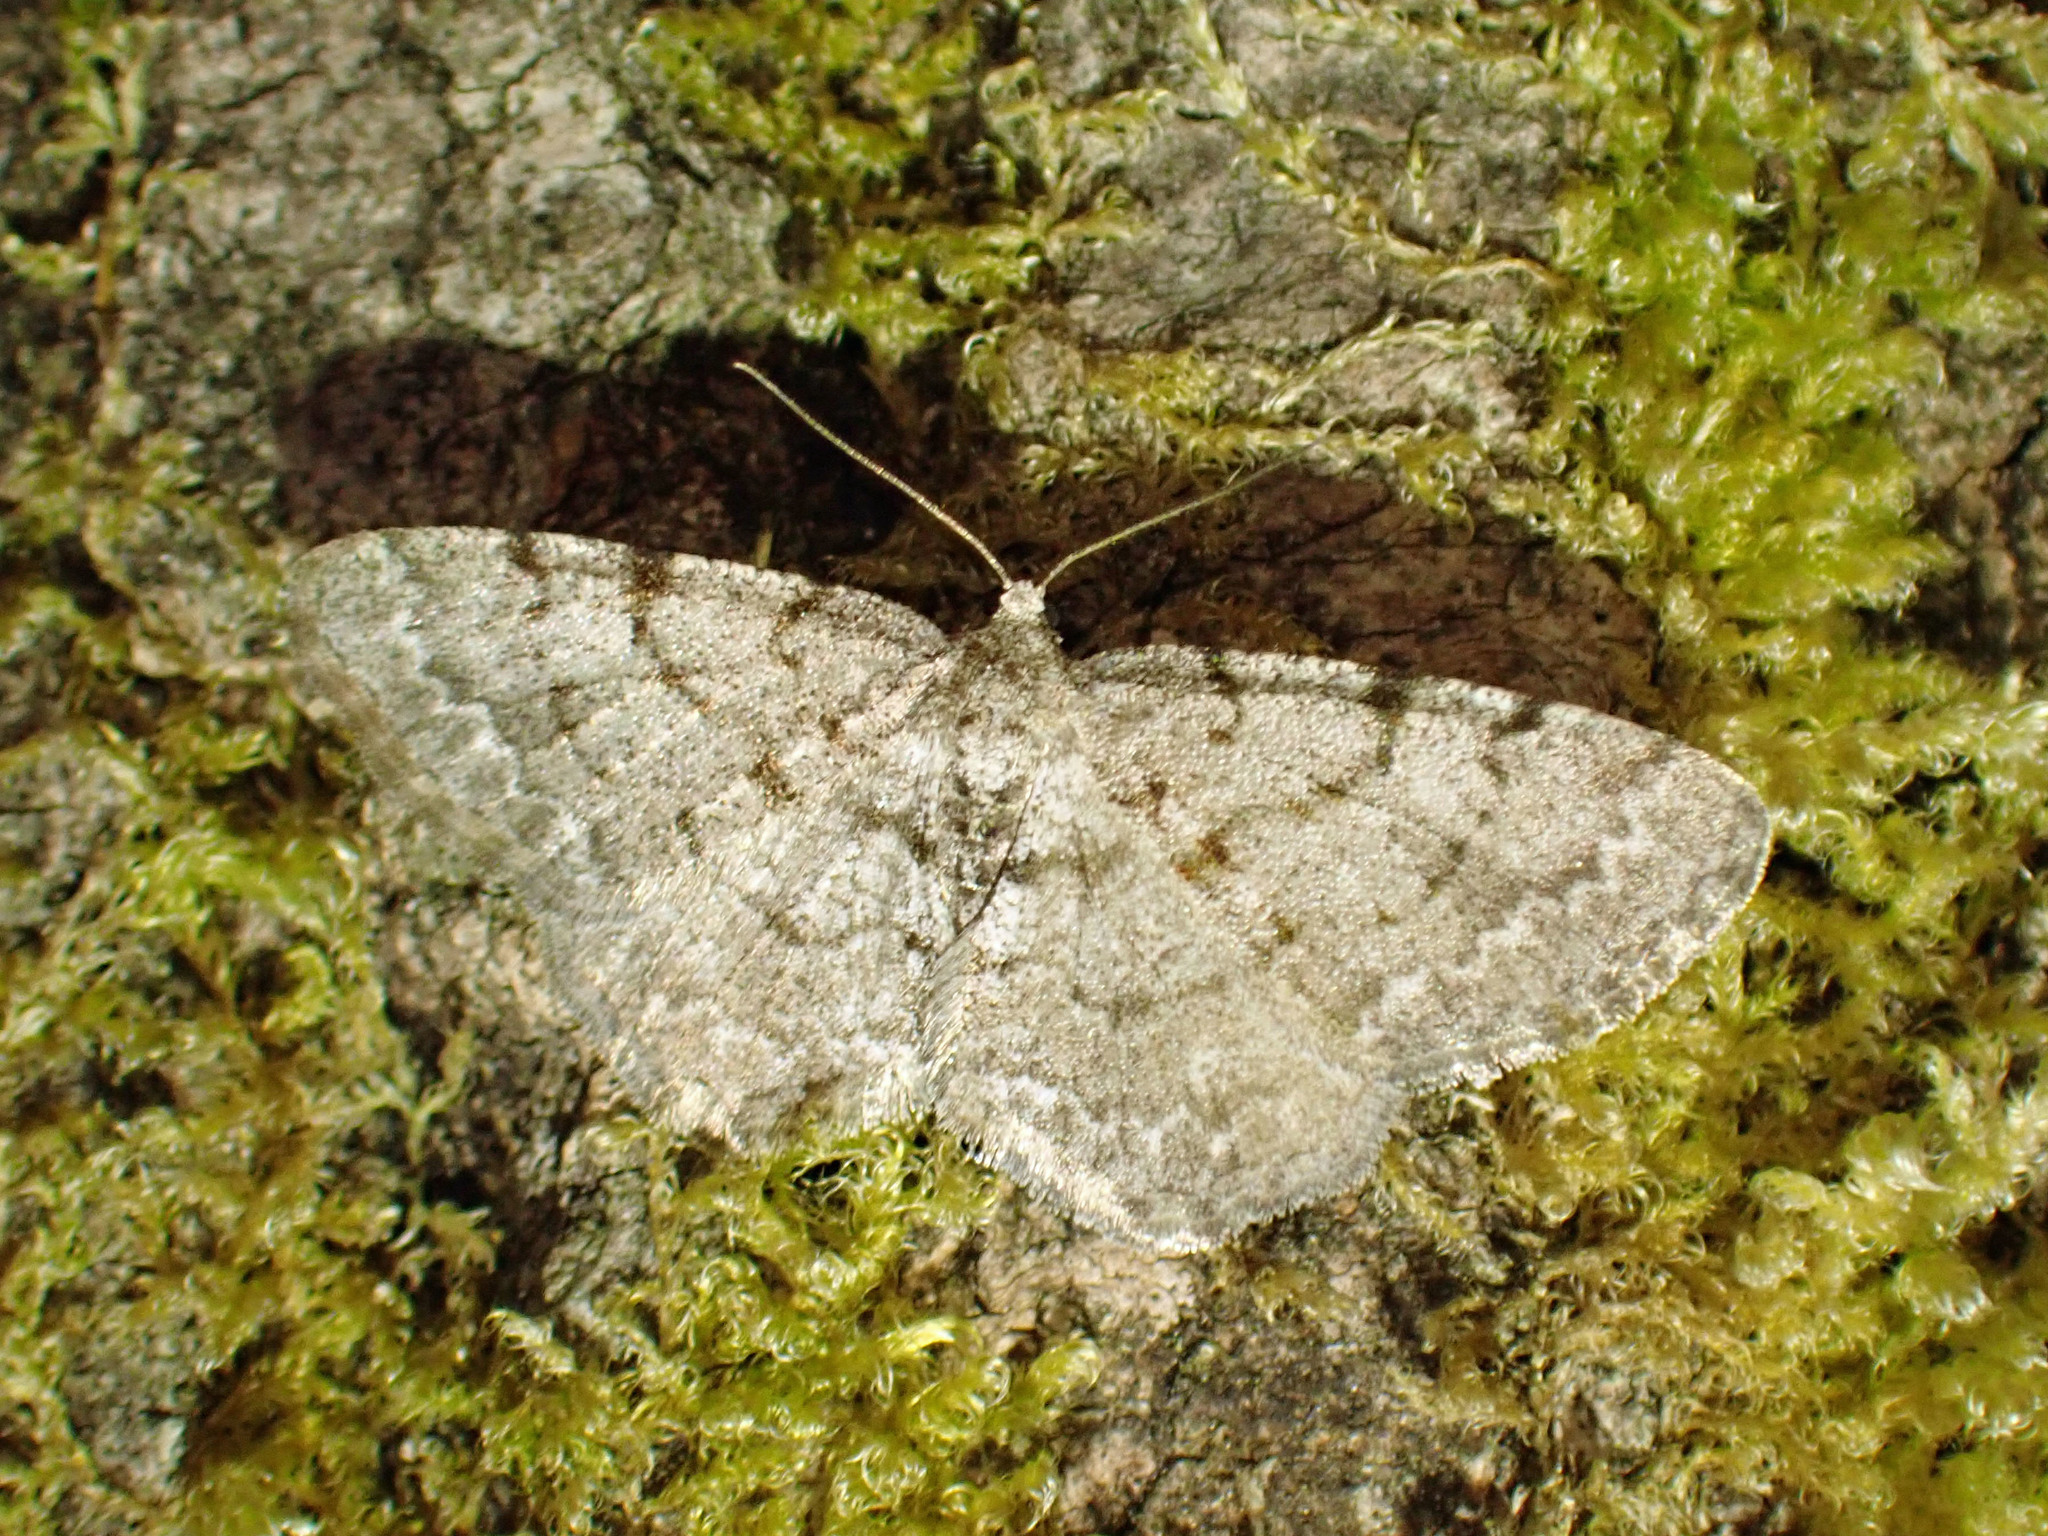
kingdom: Animalia
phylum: Arthropoda
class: Insecta
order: Lepidoptera
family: Geometridae
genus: Aethalura
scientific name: Aethalura intertexta
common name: Four-barred gray
